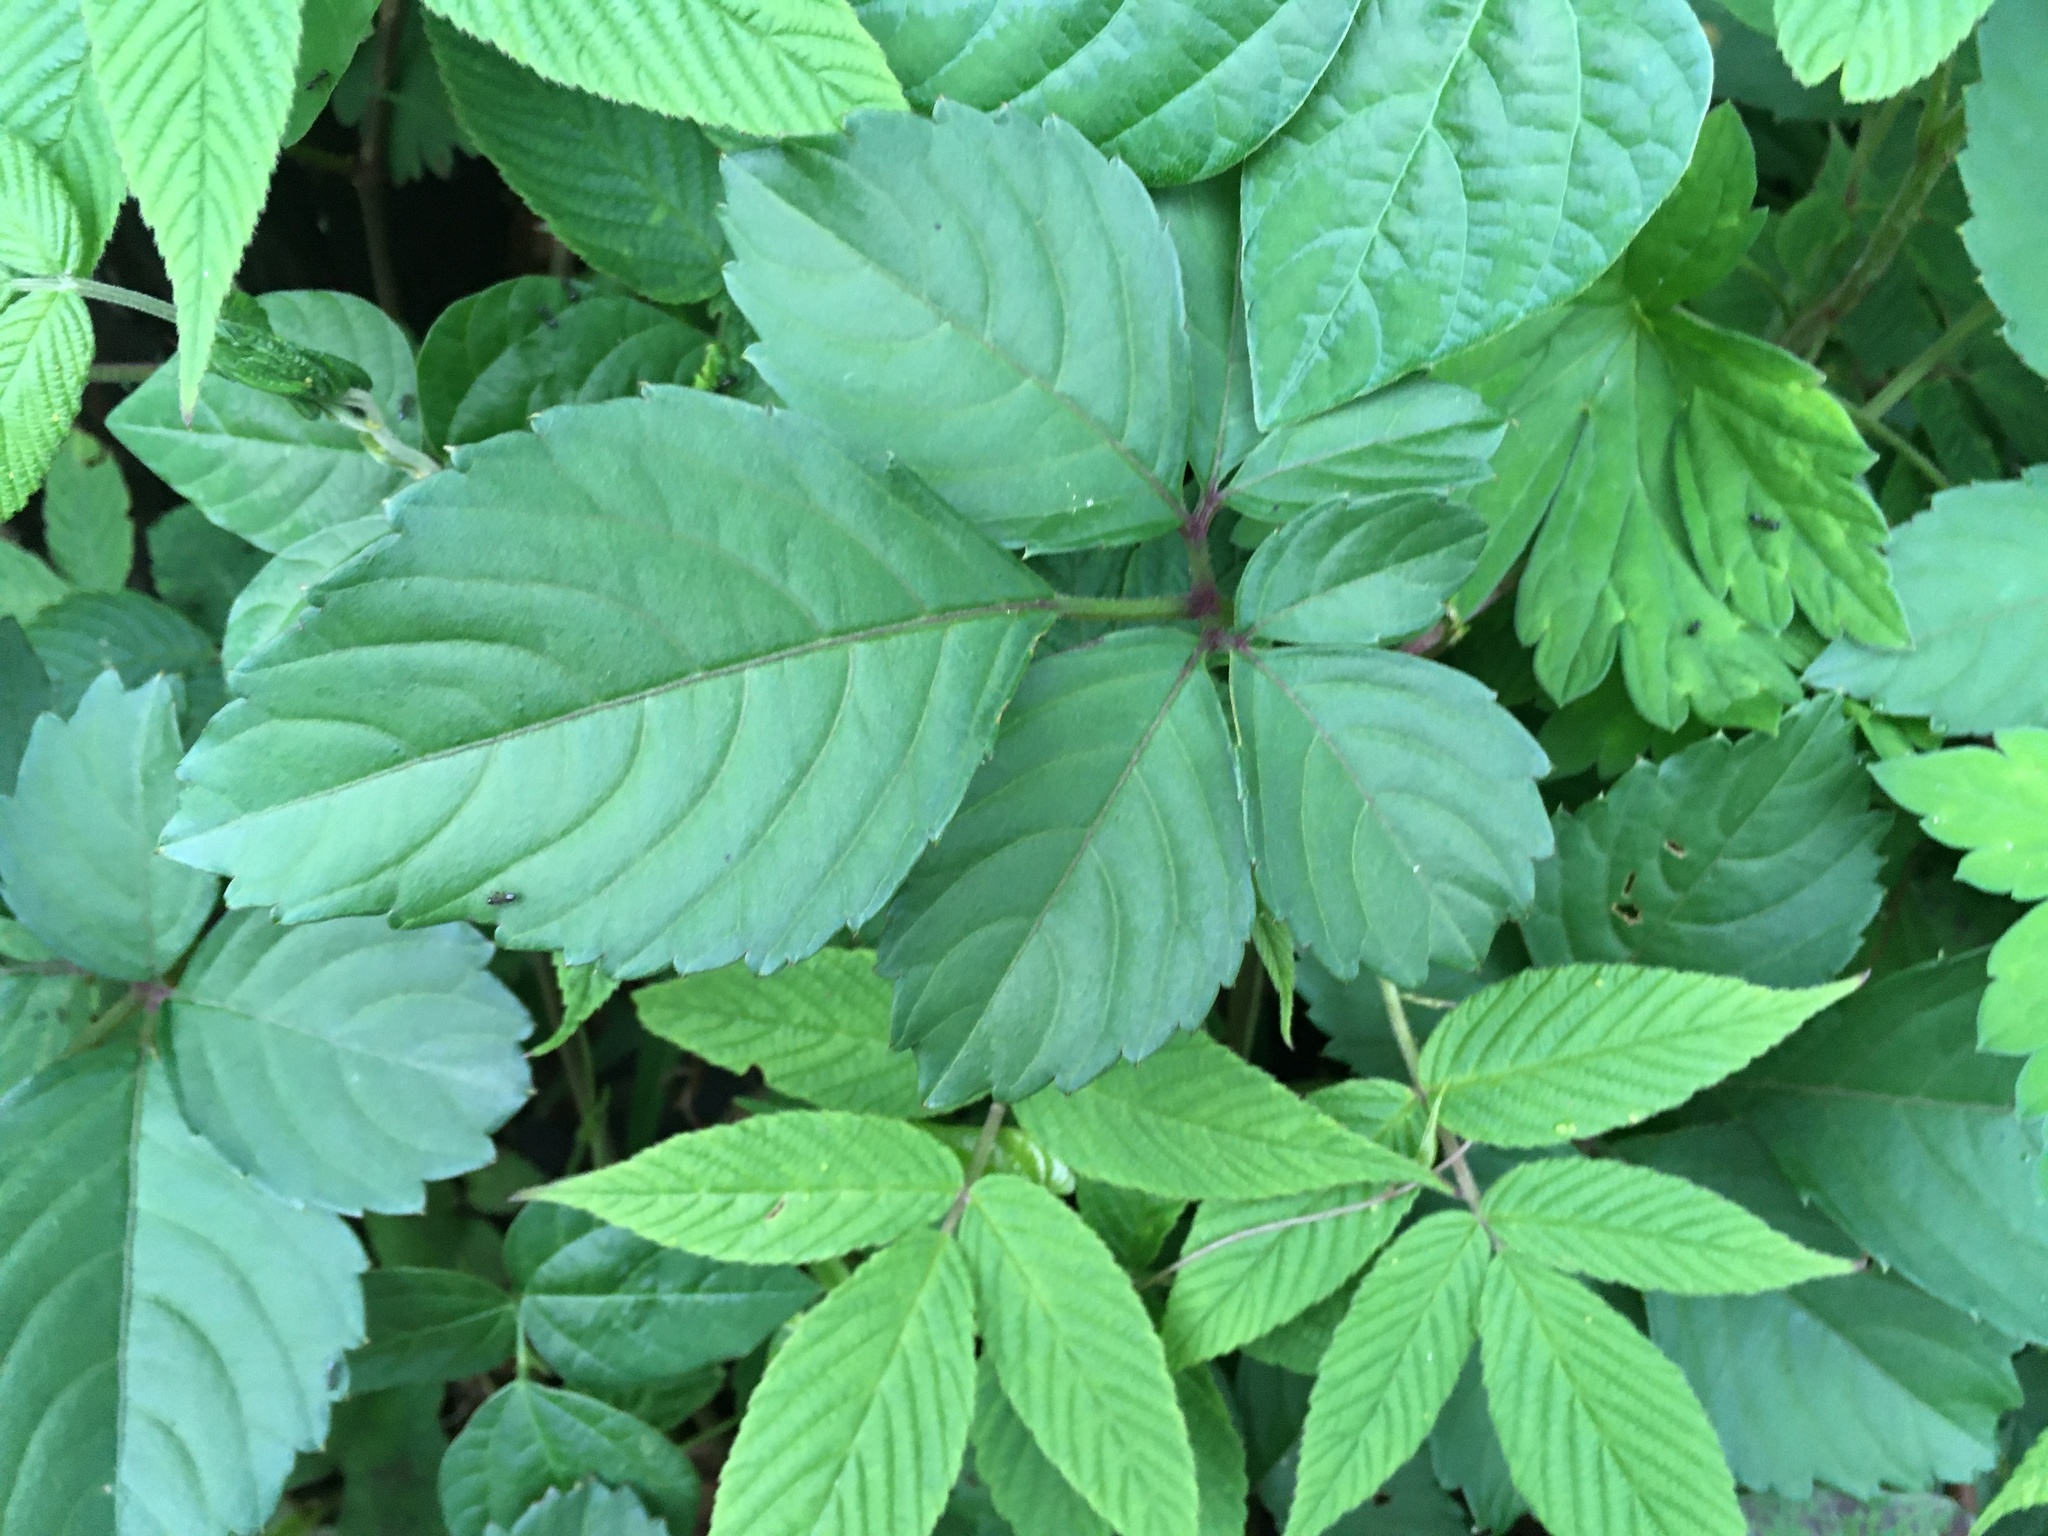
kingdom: Plantae
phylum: Tracheophyta
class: Magnoliopsida
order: Vitales
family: Vitaceae
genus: Causonis
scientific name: Causonis japonica
